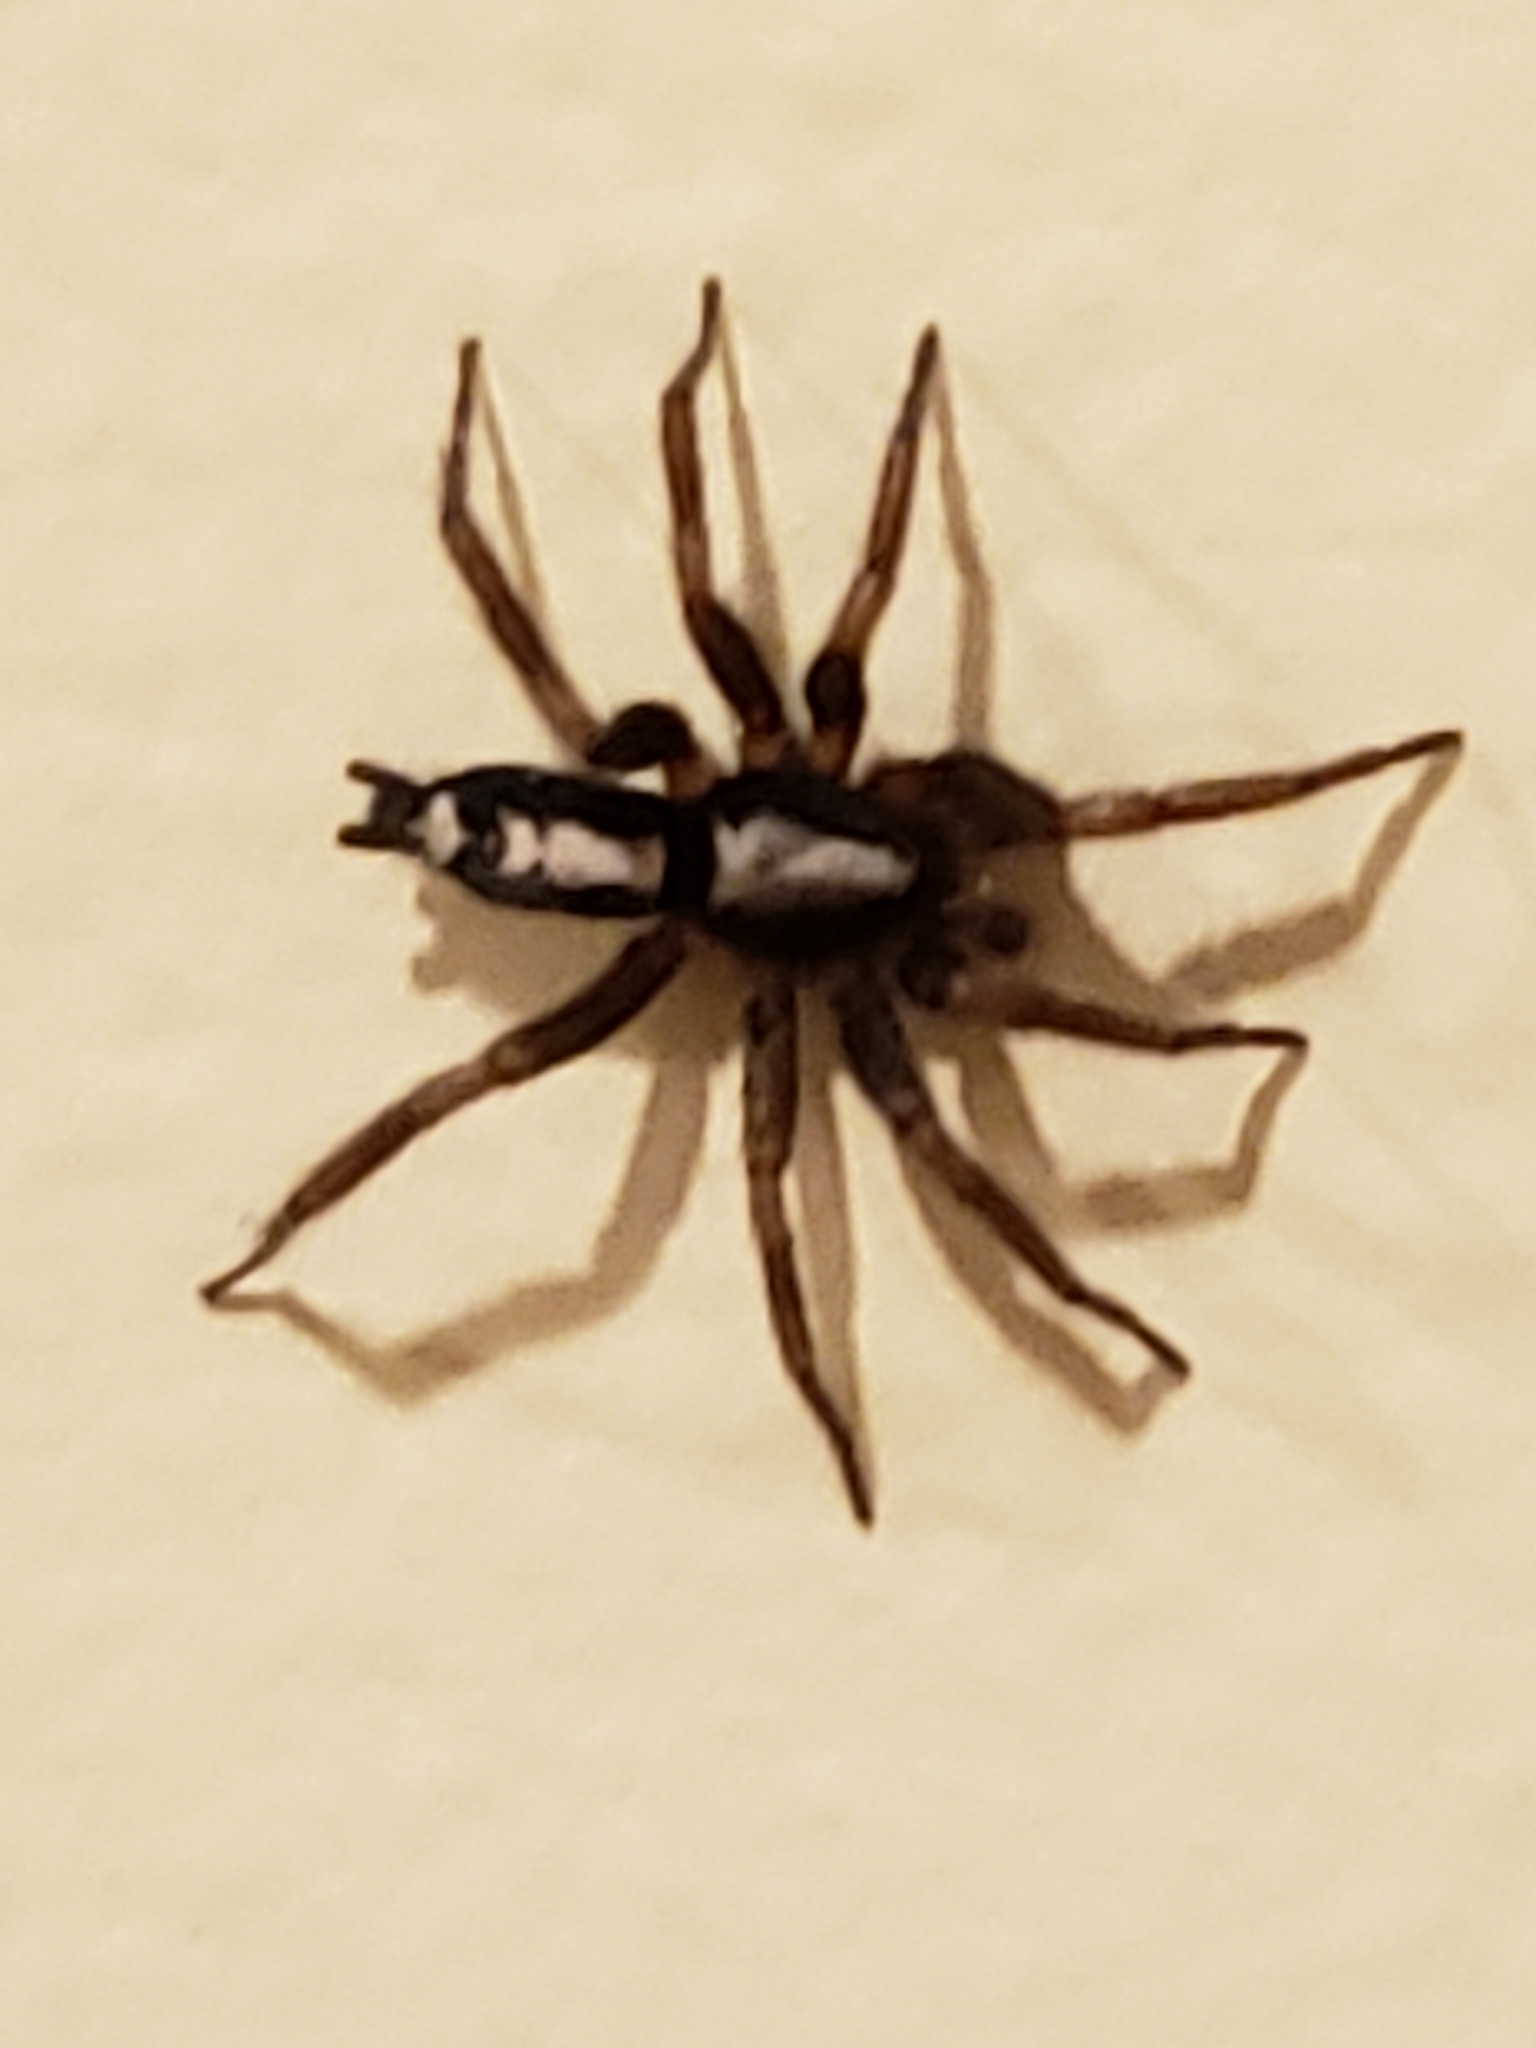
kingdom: Animalia
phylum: Arthropoda
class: Arachnida
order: Araneae
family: Gnaphosidae
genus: Herpyllus
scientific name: Herpyllus ecclesiasticus
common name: Eastern parson spider
